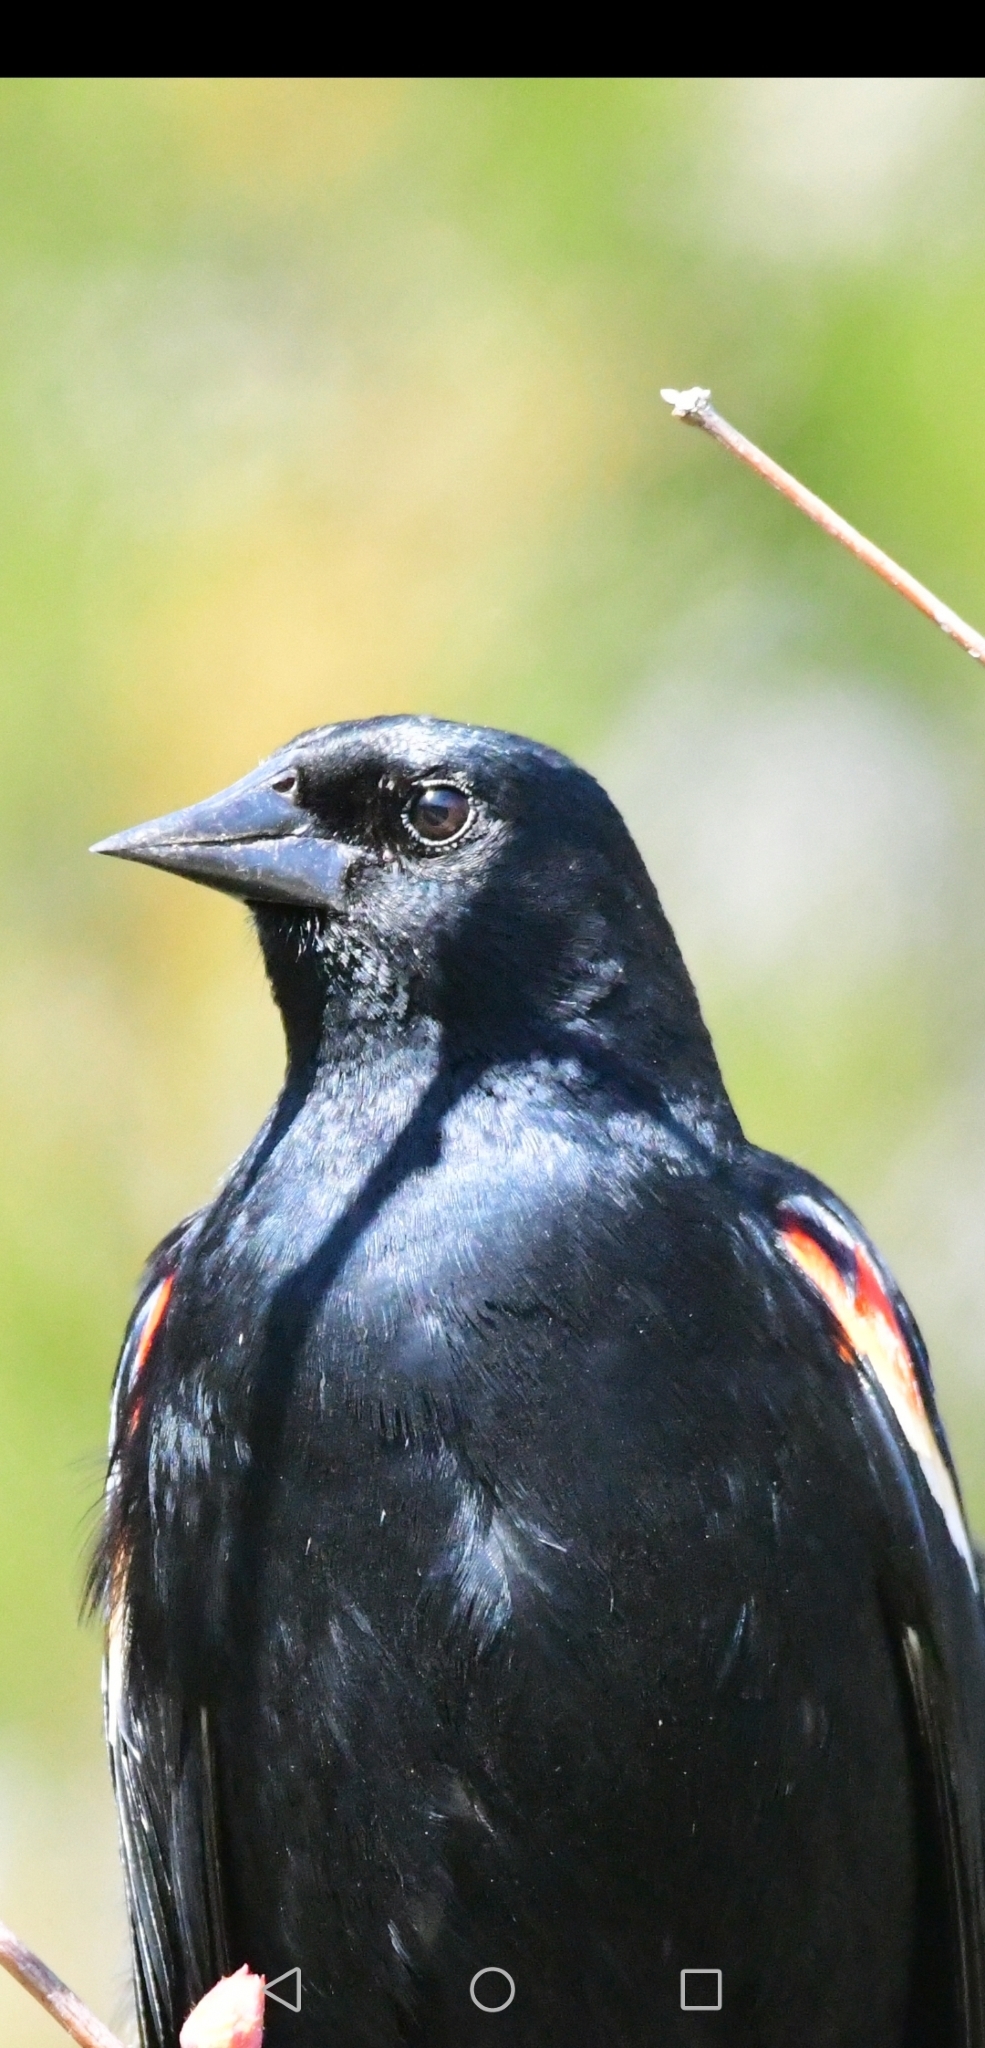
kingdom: Animalia
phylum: Chordata
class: Aves
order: Passeriformes
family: Icteridae
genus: Agelaius
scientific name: Agelaius phoeniceus
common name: Red-winged blackbird
